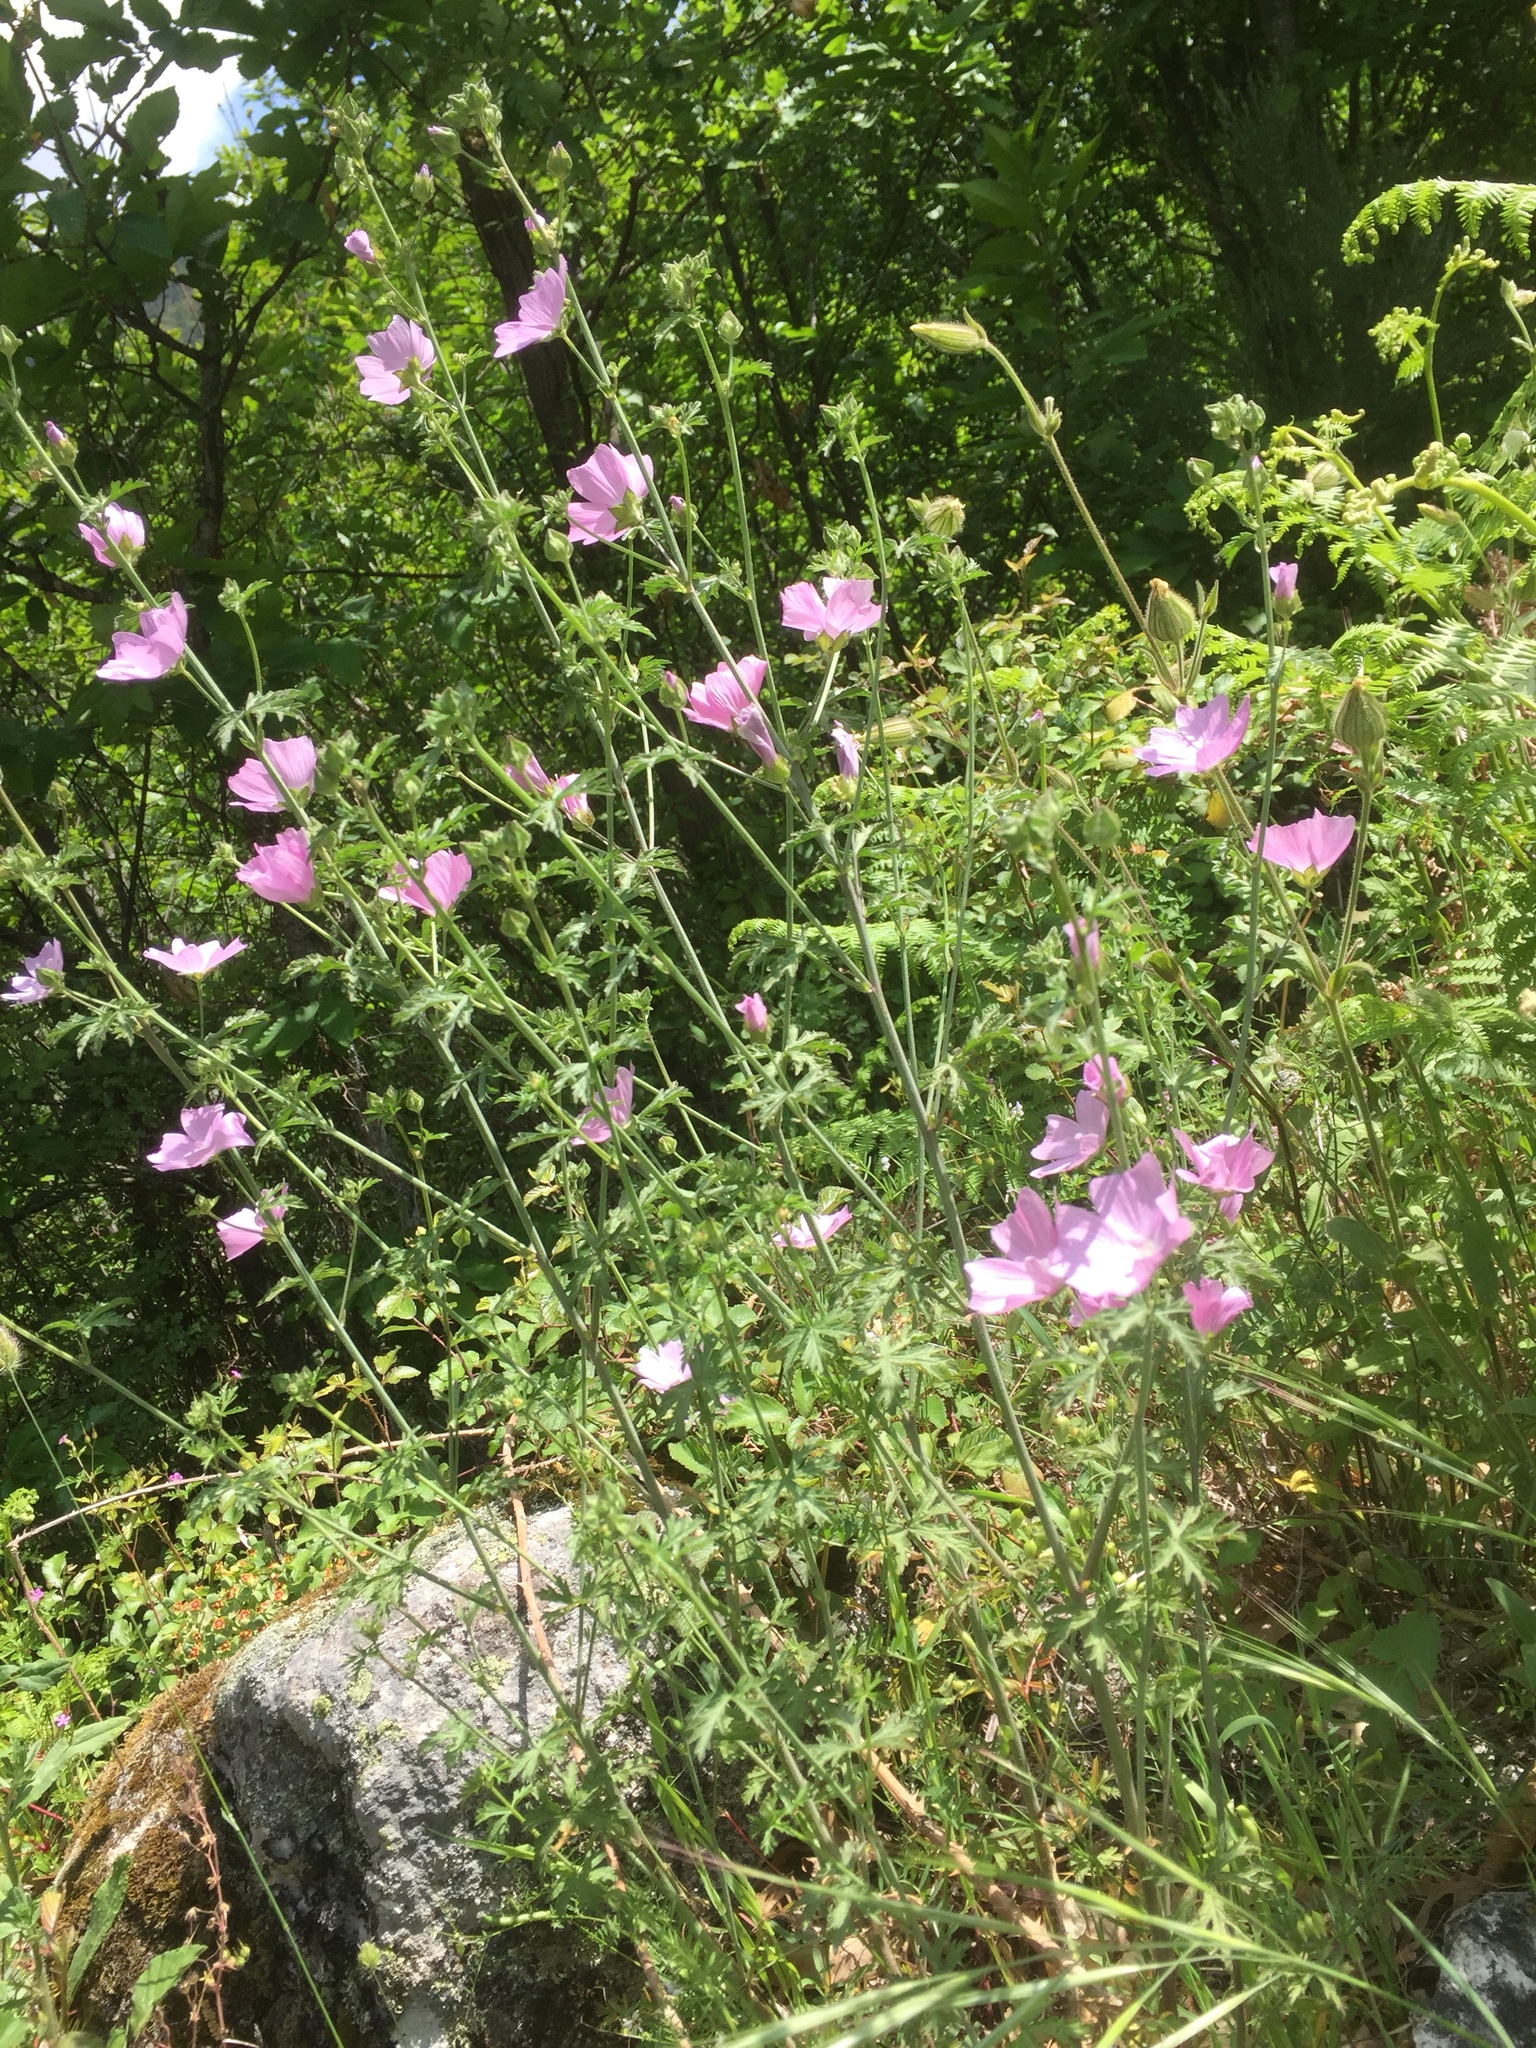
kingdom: Plantae
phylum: Tracheophyta
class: Magnoliopsida
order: Malvales
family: Malvaceae
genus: Malva
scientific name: Malva tournefortiana
